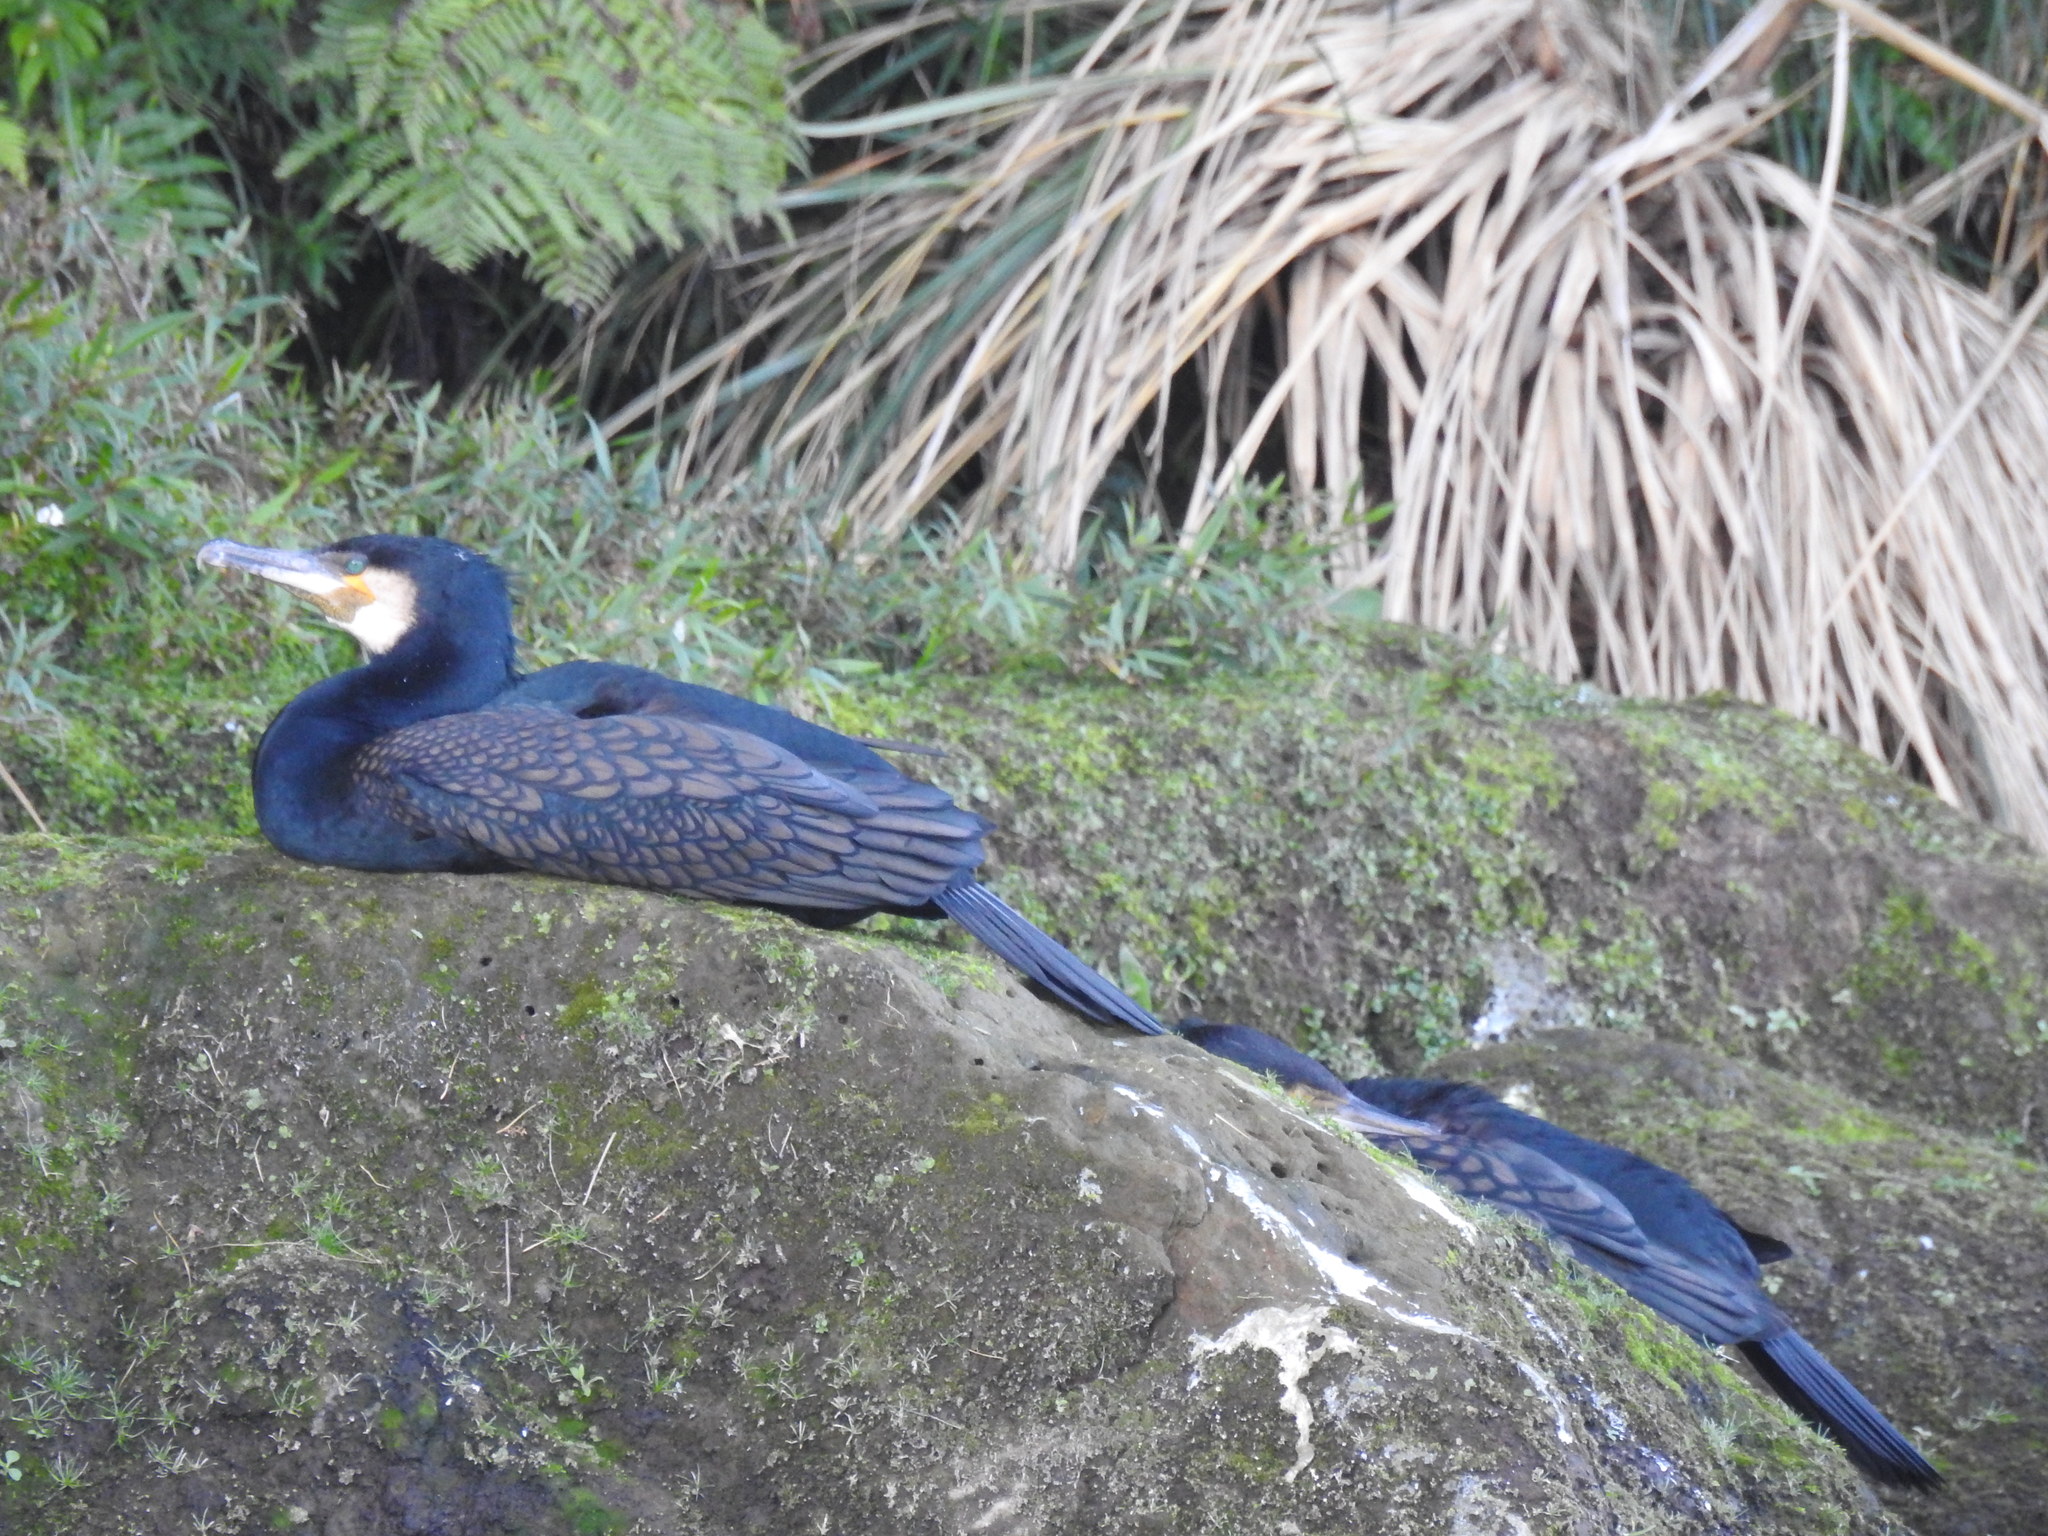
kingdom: Animalia
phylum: Chordata
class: Aves
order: Suliformes
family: Phalacrocoracidae
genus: Phalacrocorax
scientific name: Phalacrocorax carbo
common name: Great cormorant
